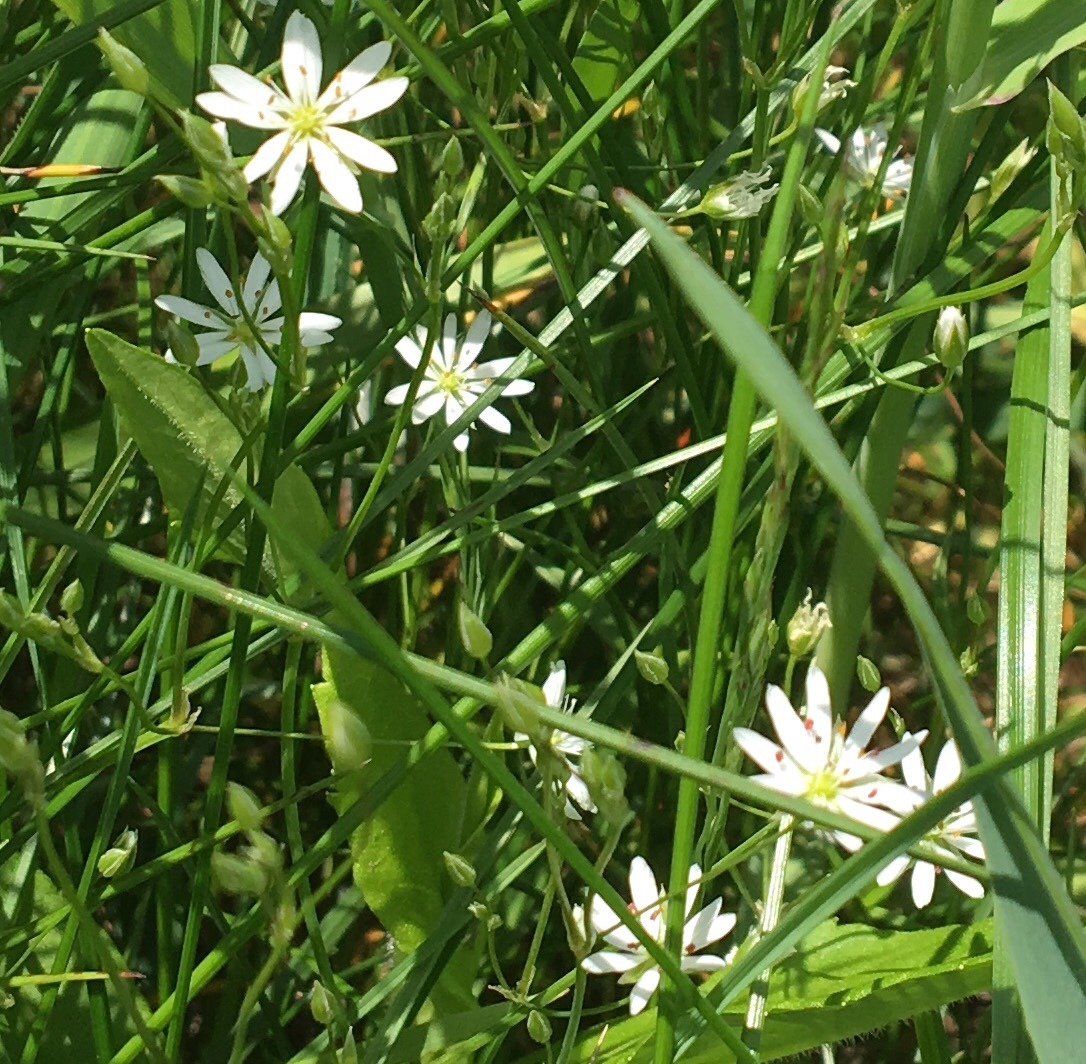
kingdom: Plantae
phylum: Tracheophyta
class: Magnoliopsida
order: Caryophyllales
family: Caryophyllaceae
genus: Stellaria
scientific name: Stellaria pubera
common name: Star chickweed
